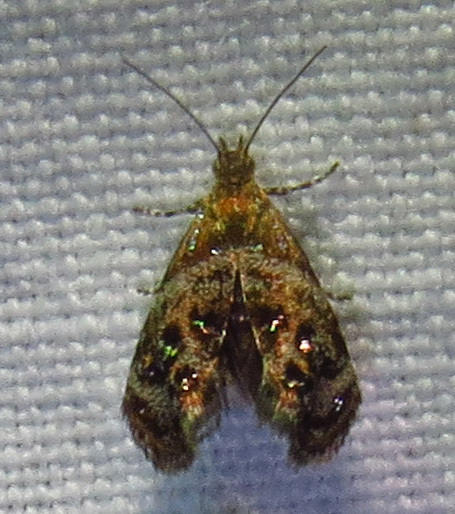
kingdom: Animalia
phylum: Arthropoda
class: Insecta
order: Lepidoptera
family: Choreutidae
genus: Tebenna
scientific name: Tebenna gnaphaliella
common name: Everlasting tebenna moth
